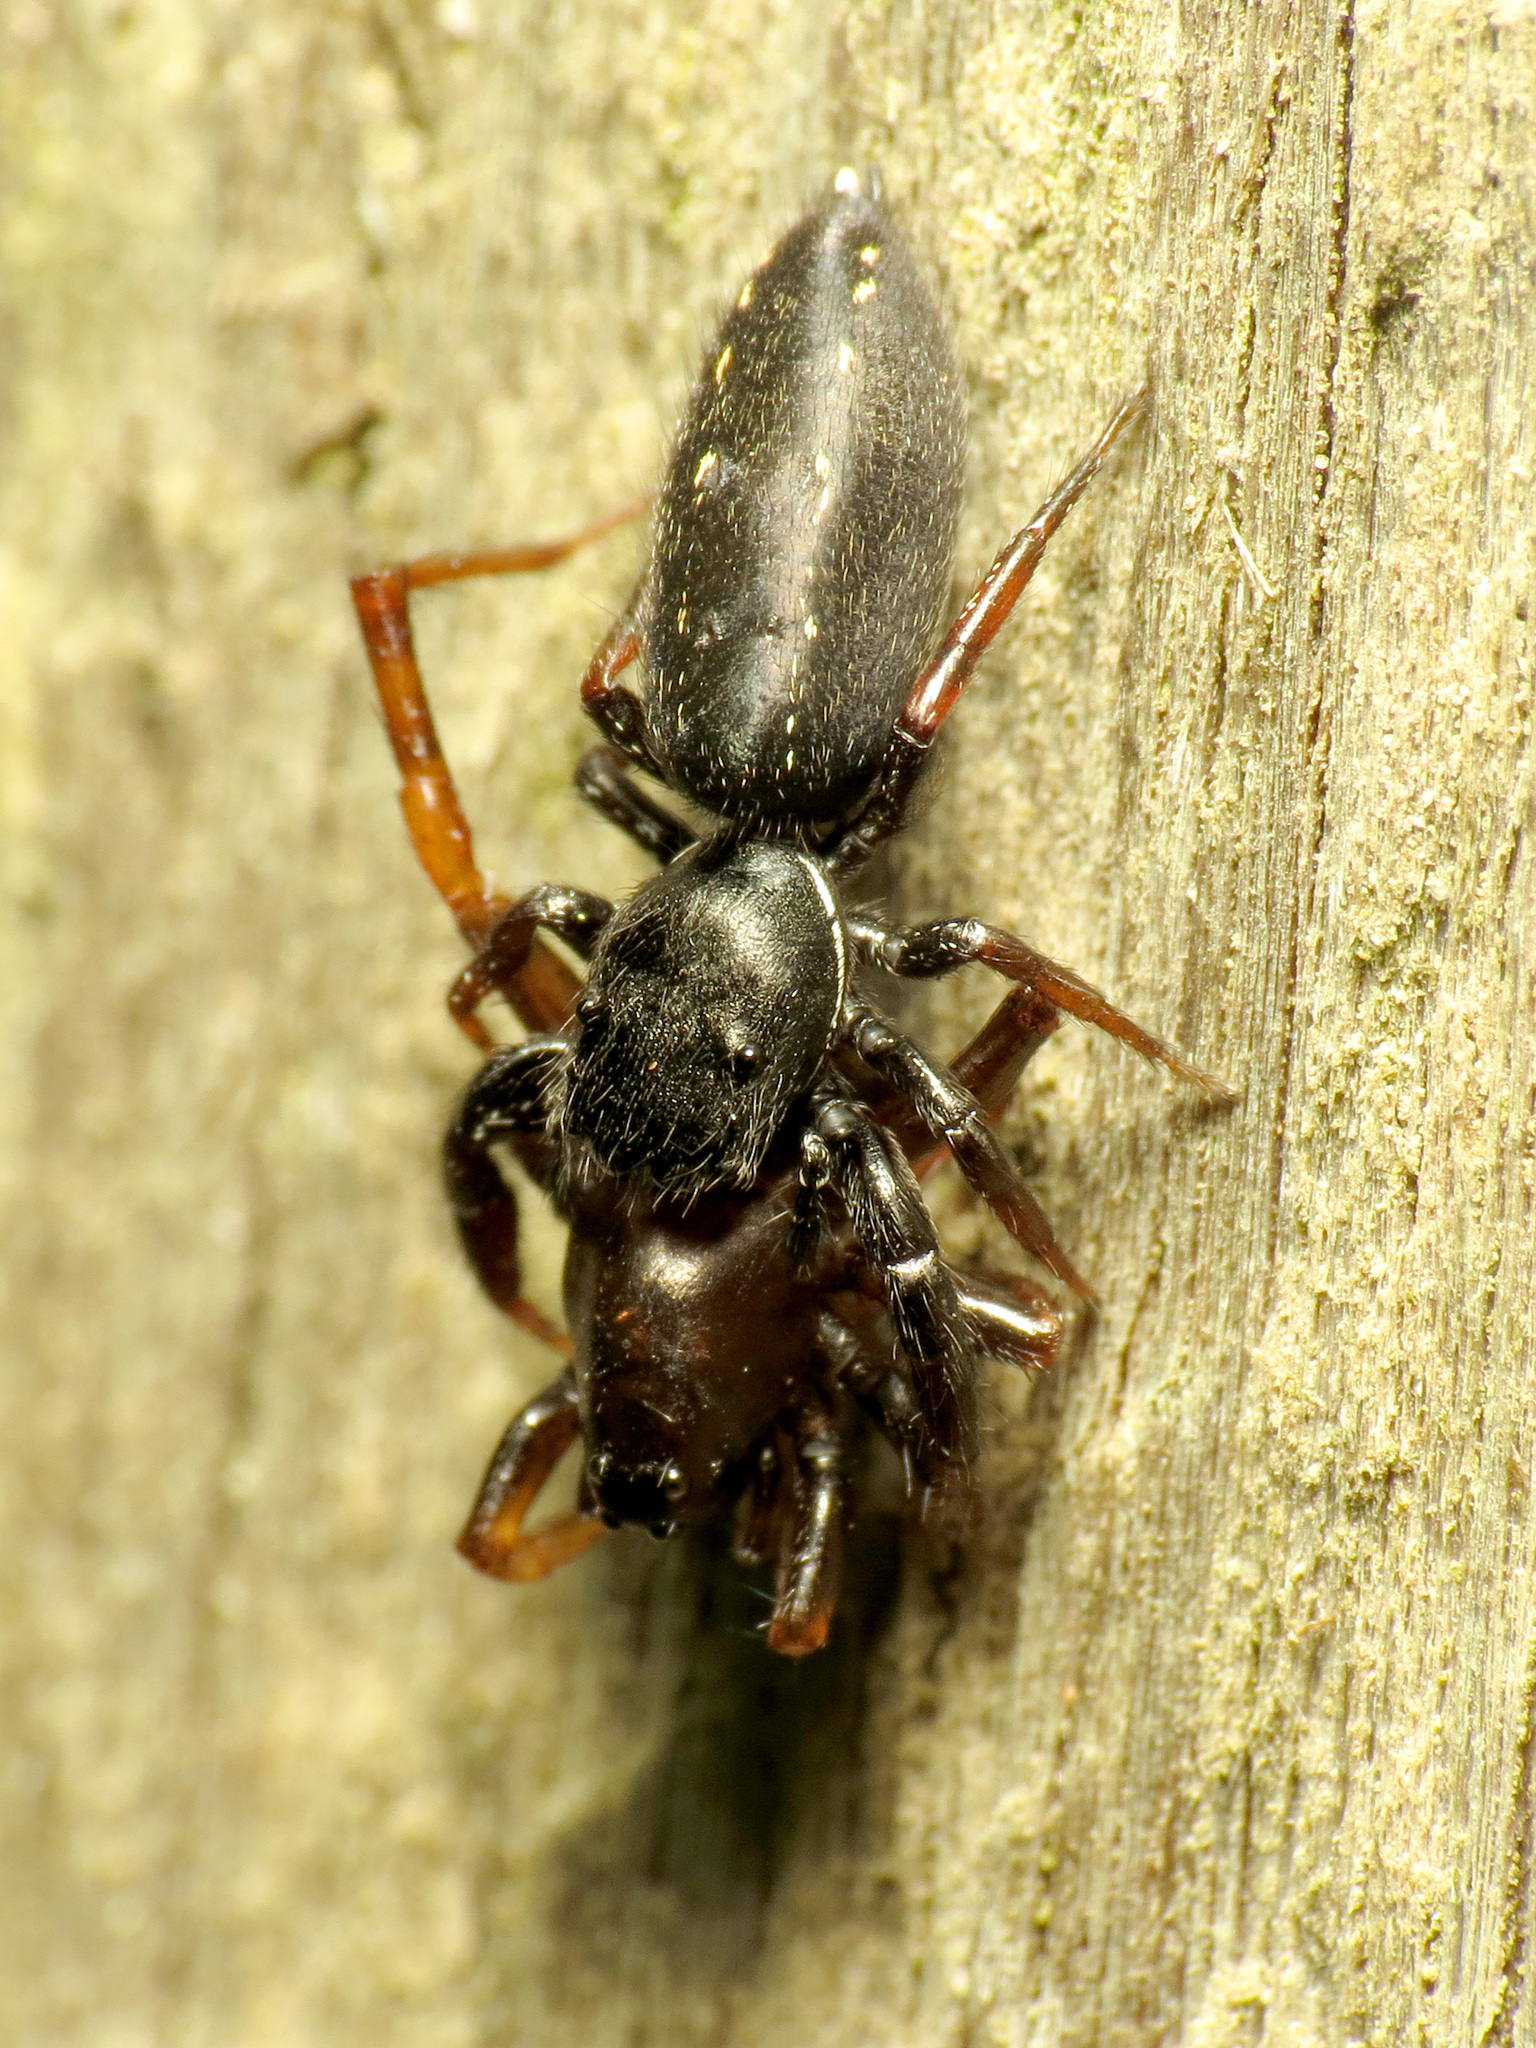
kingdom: Animalia
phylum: Arthropoda
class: Arachnida
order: Araneae
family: Salticidae
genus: Metacyrba
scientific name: Metacyrba taeniola
